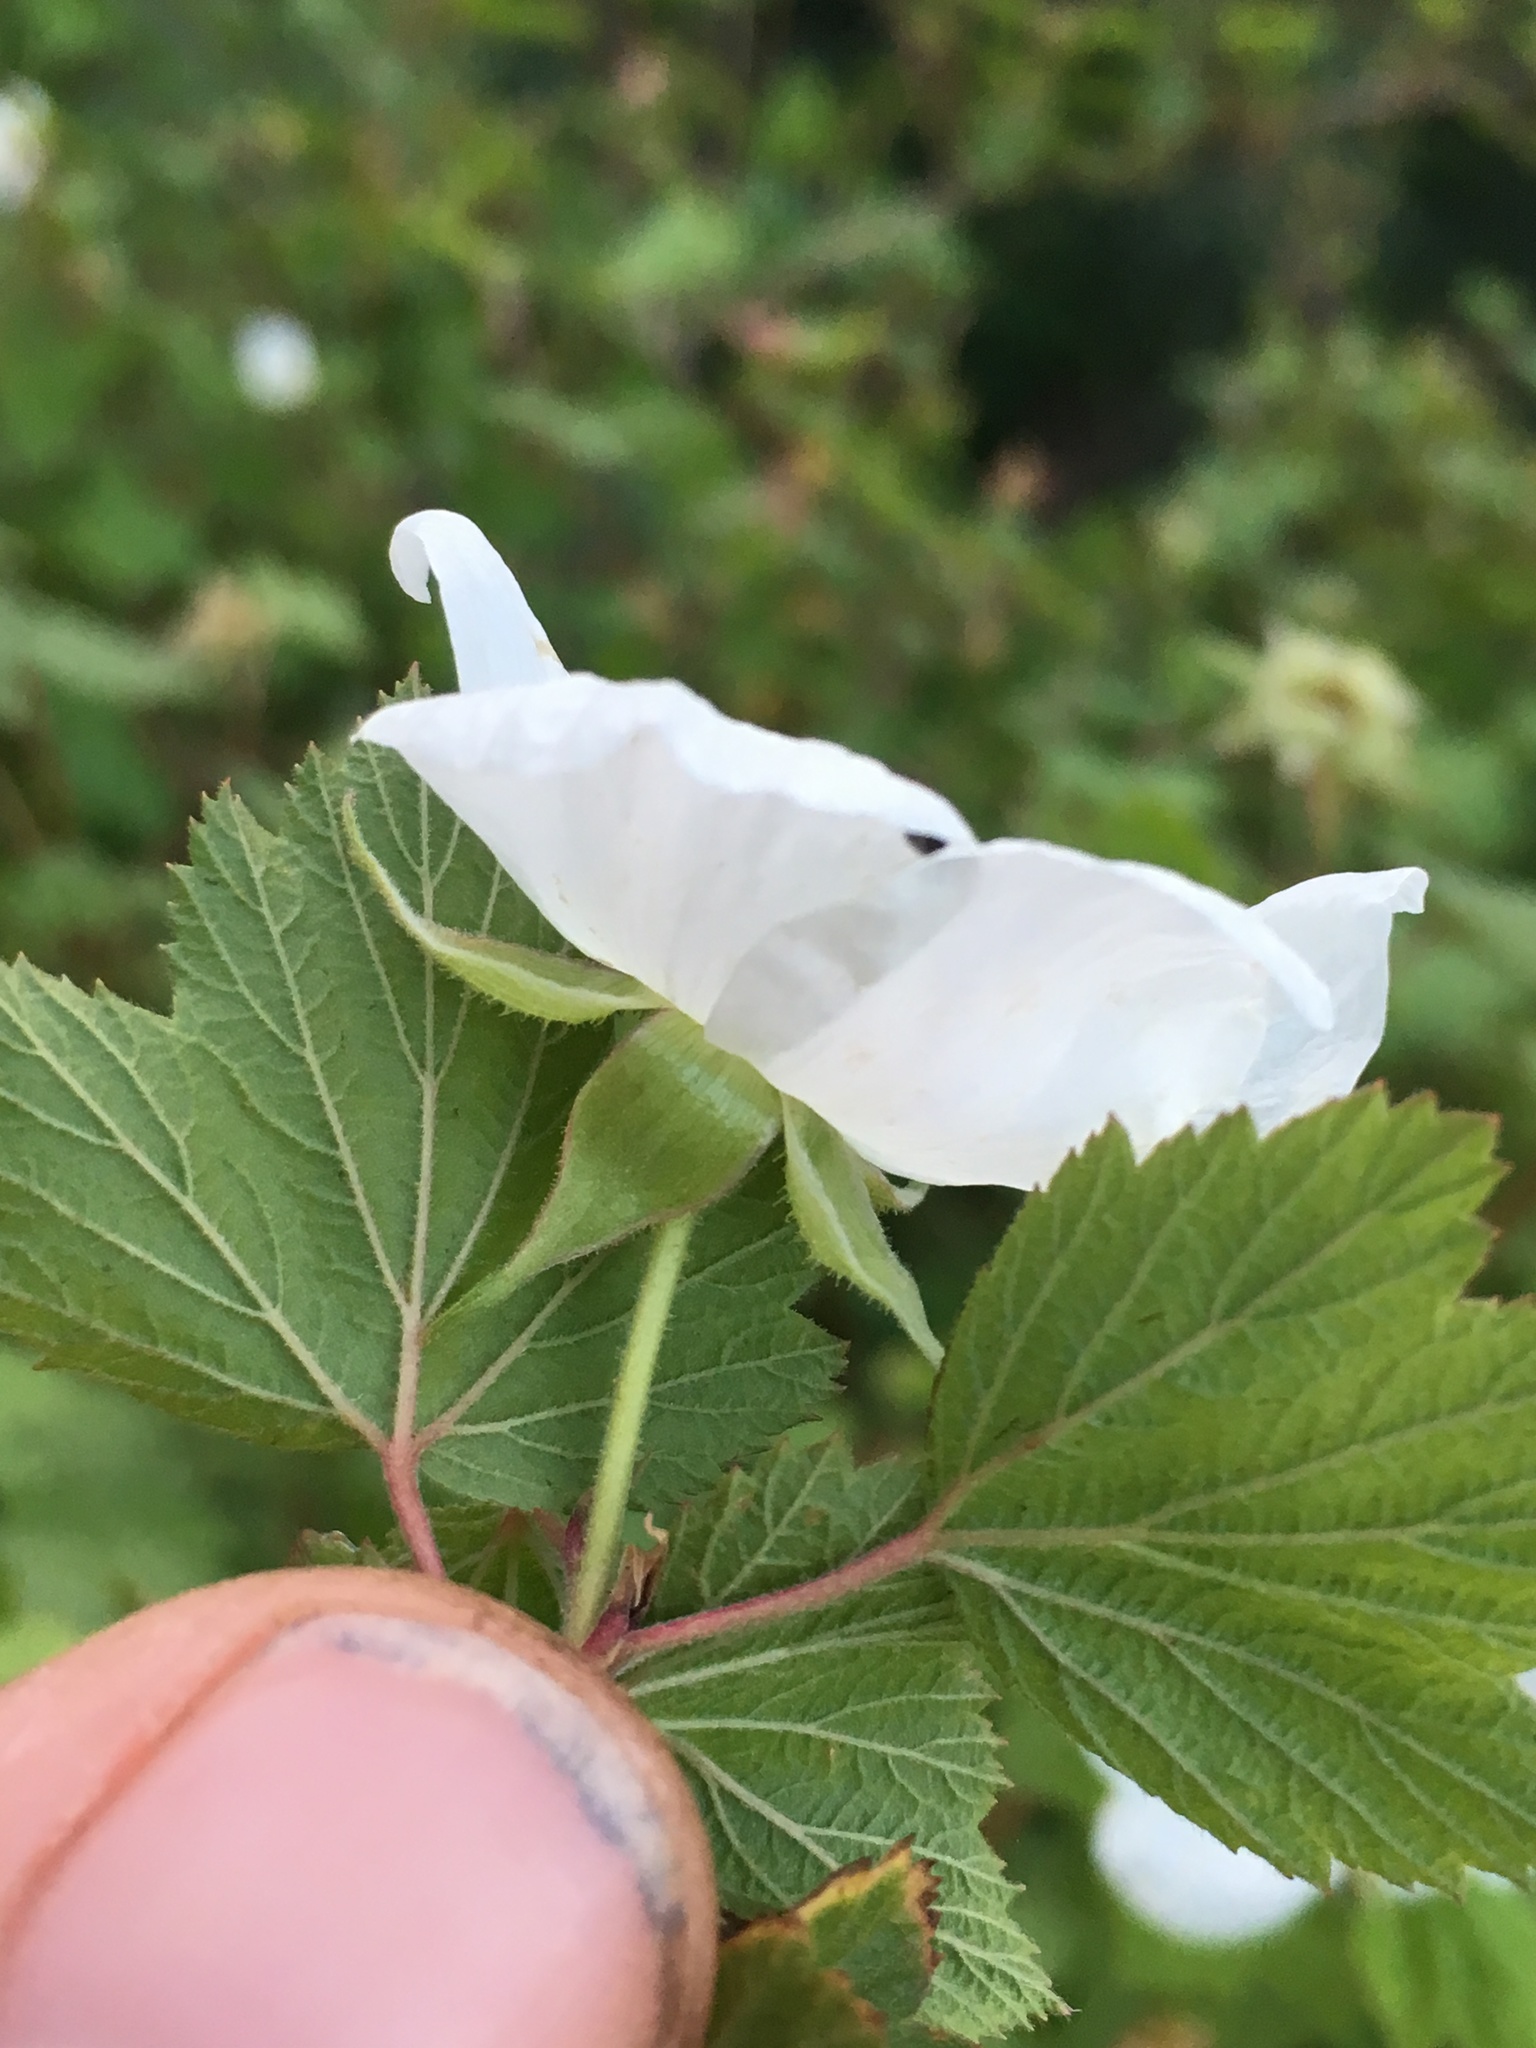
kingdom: Plantae
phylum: Tracheophyta
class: Magnoliopsida
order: Rosales
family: Rosaceae
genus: Rubus
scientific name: Rubus neomexicanus
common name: New mexico raspberry
